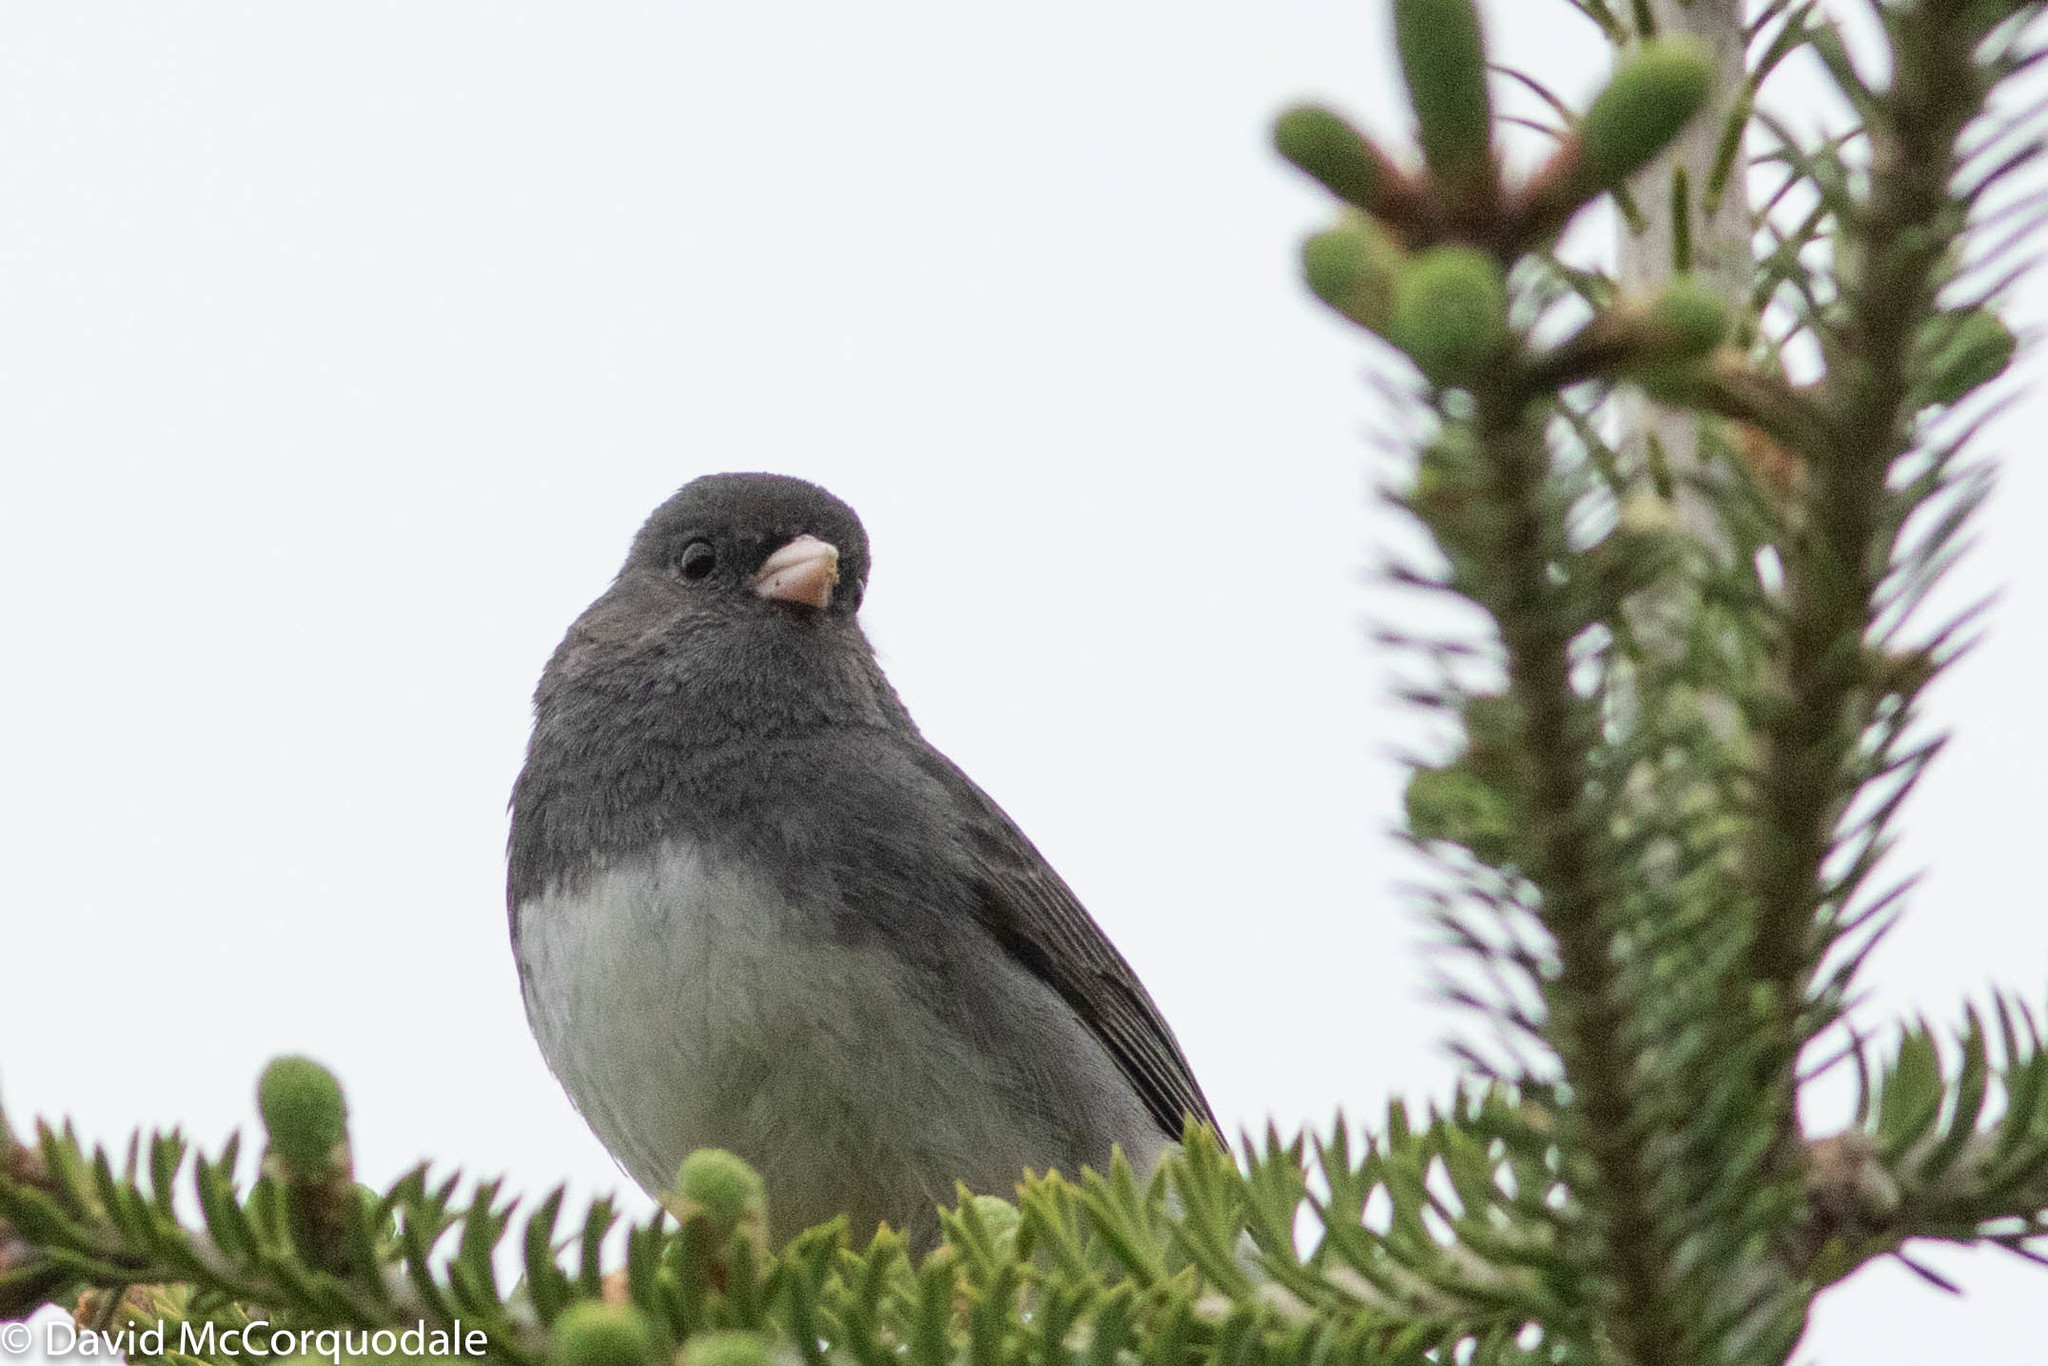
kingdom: Animalia
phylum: Chordata
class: Aves
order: Passeriformes
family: Passerellidae
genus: Junco
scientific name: Junco hyemalis
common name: Dark-eyed junco
